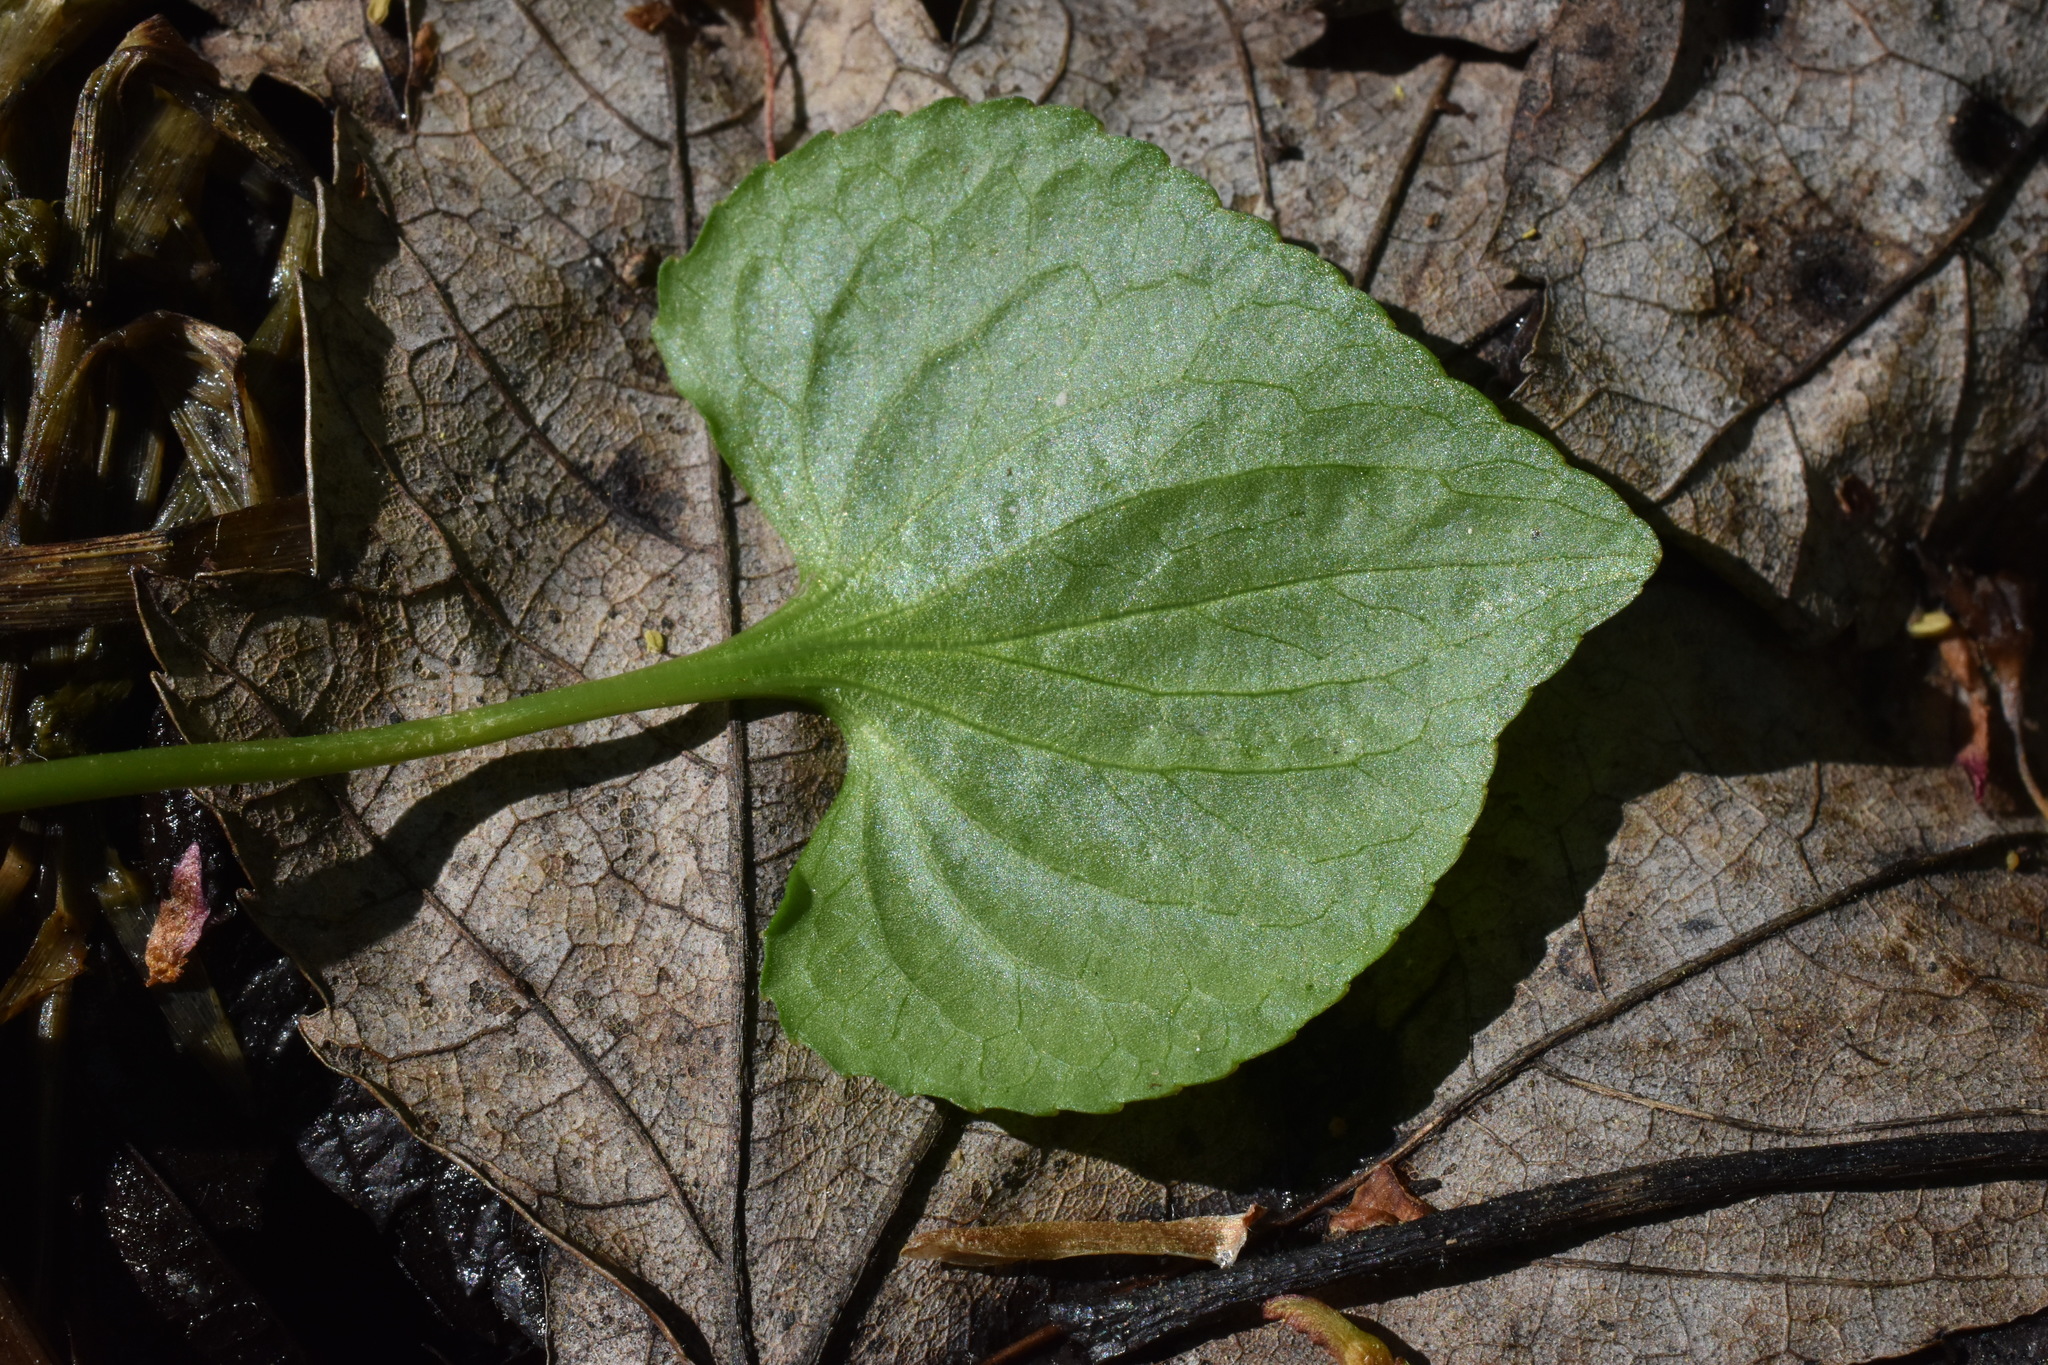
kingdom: Plantae
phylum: Tracheophyta
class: Magnoliopsida
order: Malpighiales
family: Violaceae
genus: Viola
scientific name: Viola nephrophylla
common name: Blue meadow violet
